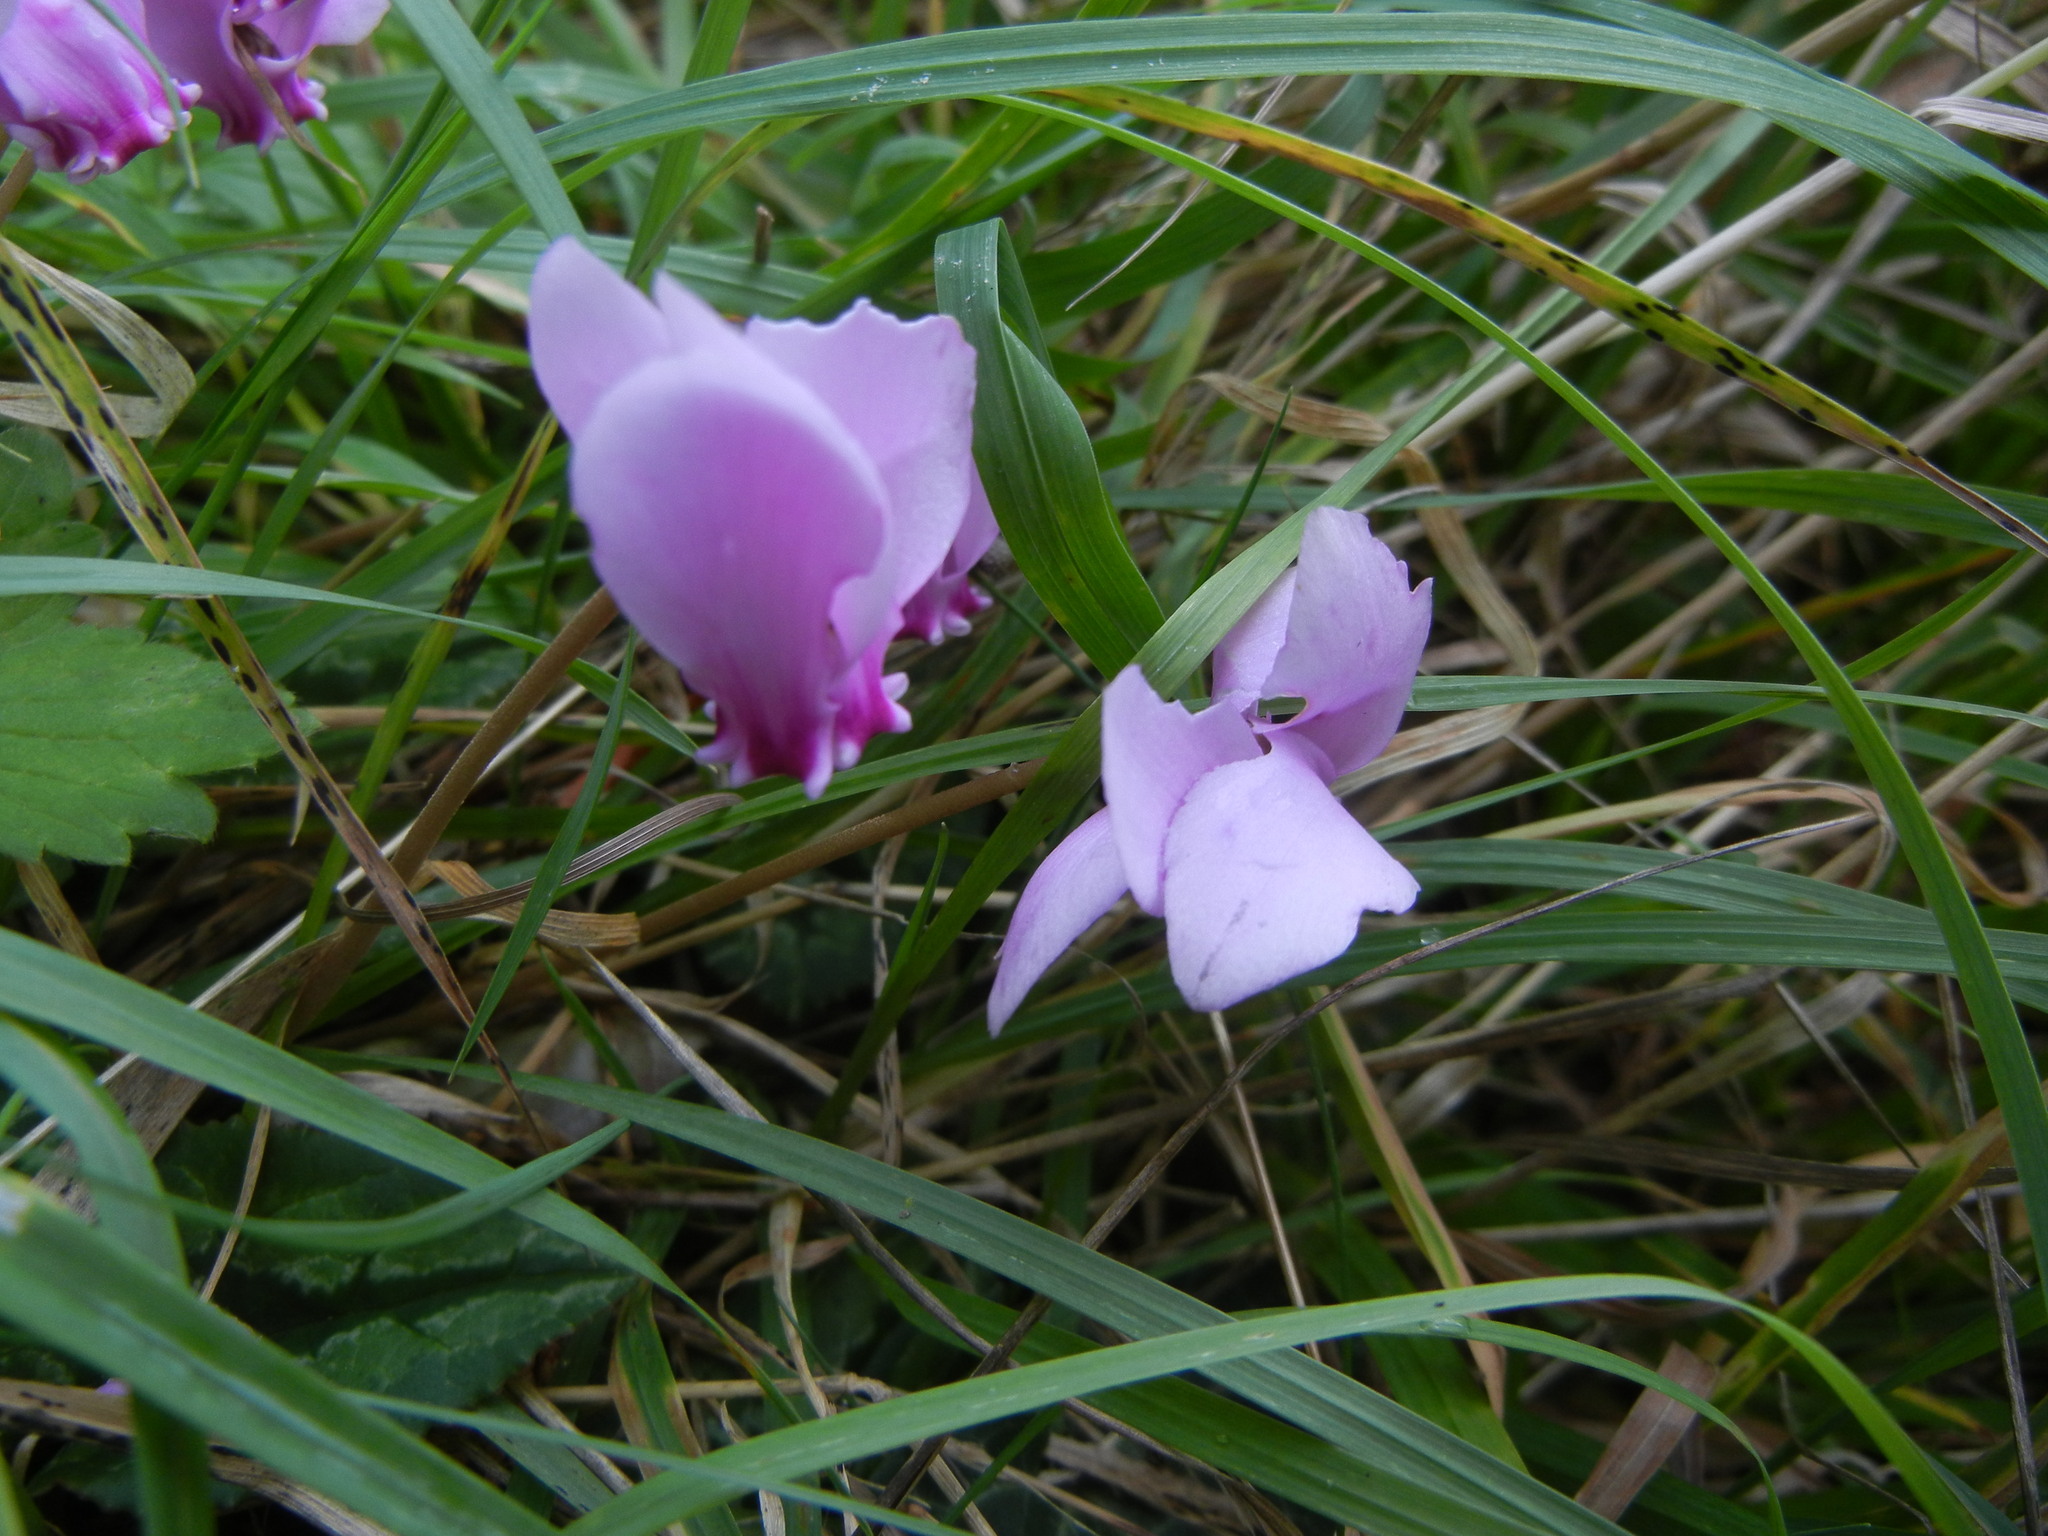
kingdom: Plantae
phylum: Tracheophyta
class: Magnoliopsida
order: Ericales
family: Primulaceae
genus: Cyclamen
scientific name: Cyclamen hederifolium
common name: Sowbread
